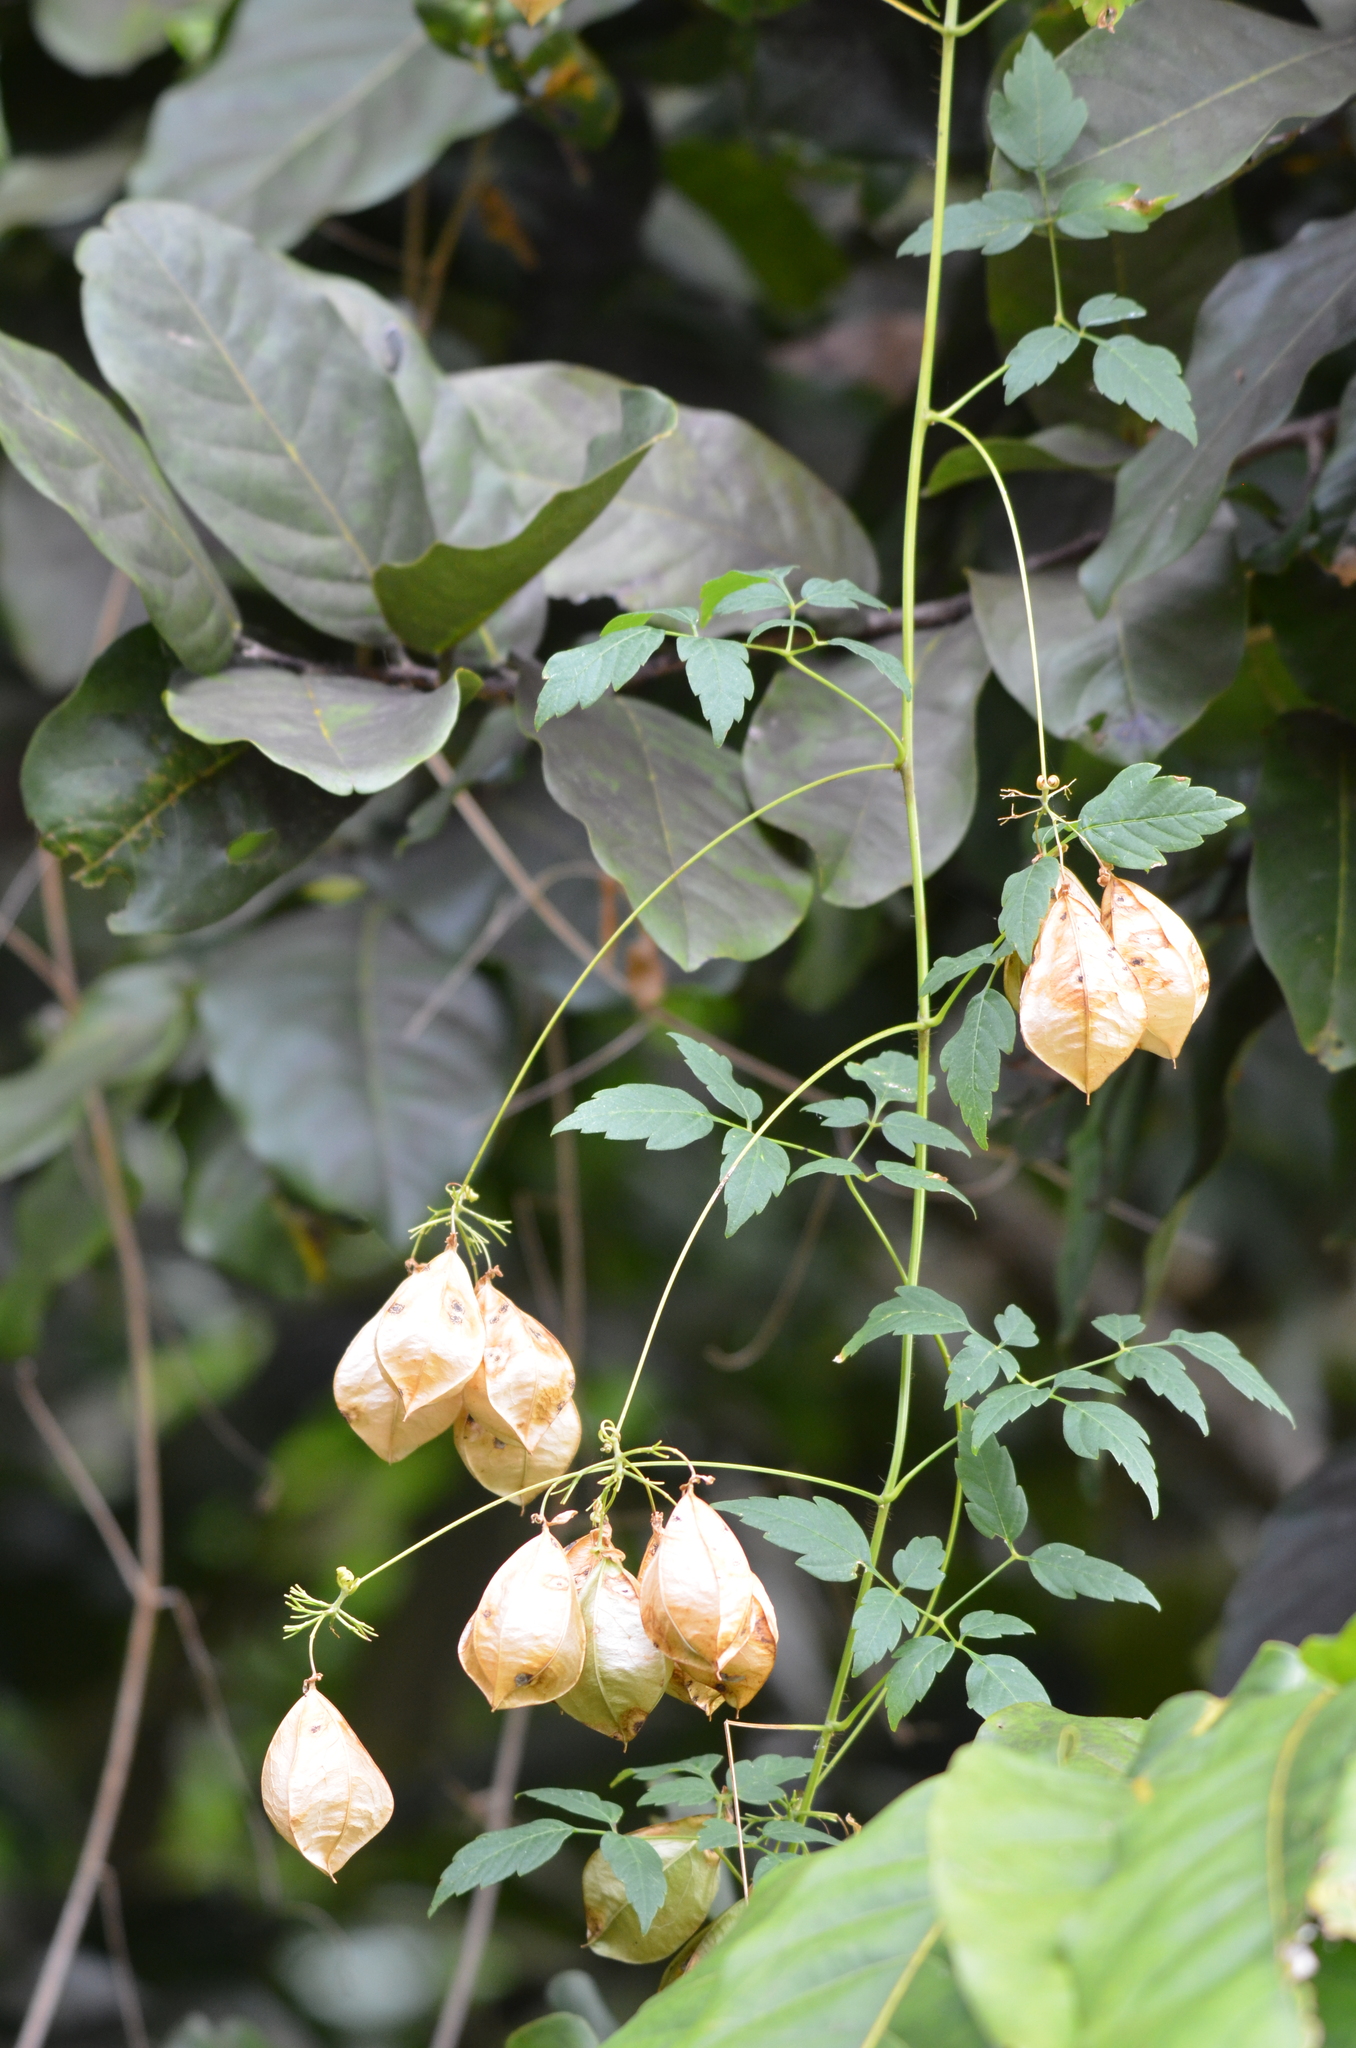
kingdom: Plantae
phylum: Tracheophyta
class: Magnoliopsida
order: Sapindales
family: Sapindaceae
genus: Cardiospermum
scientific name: Cardiospermum grandiflorum
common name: Balloon vine
